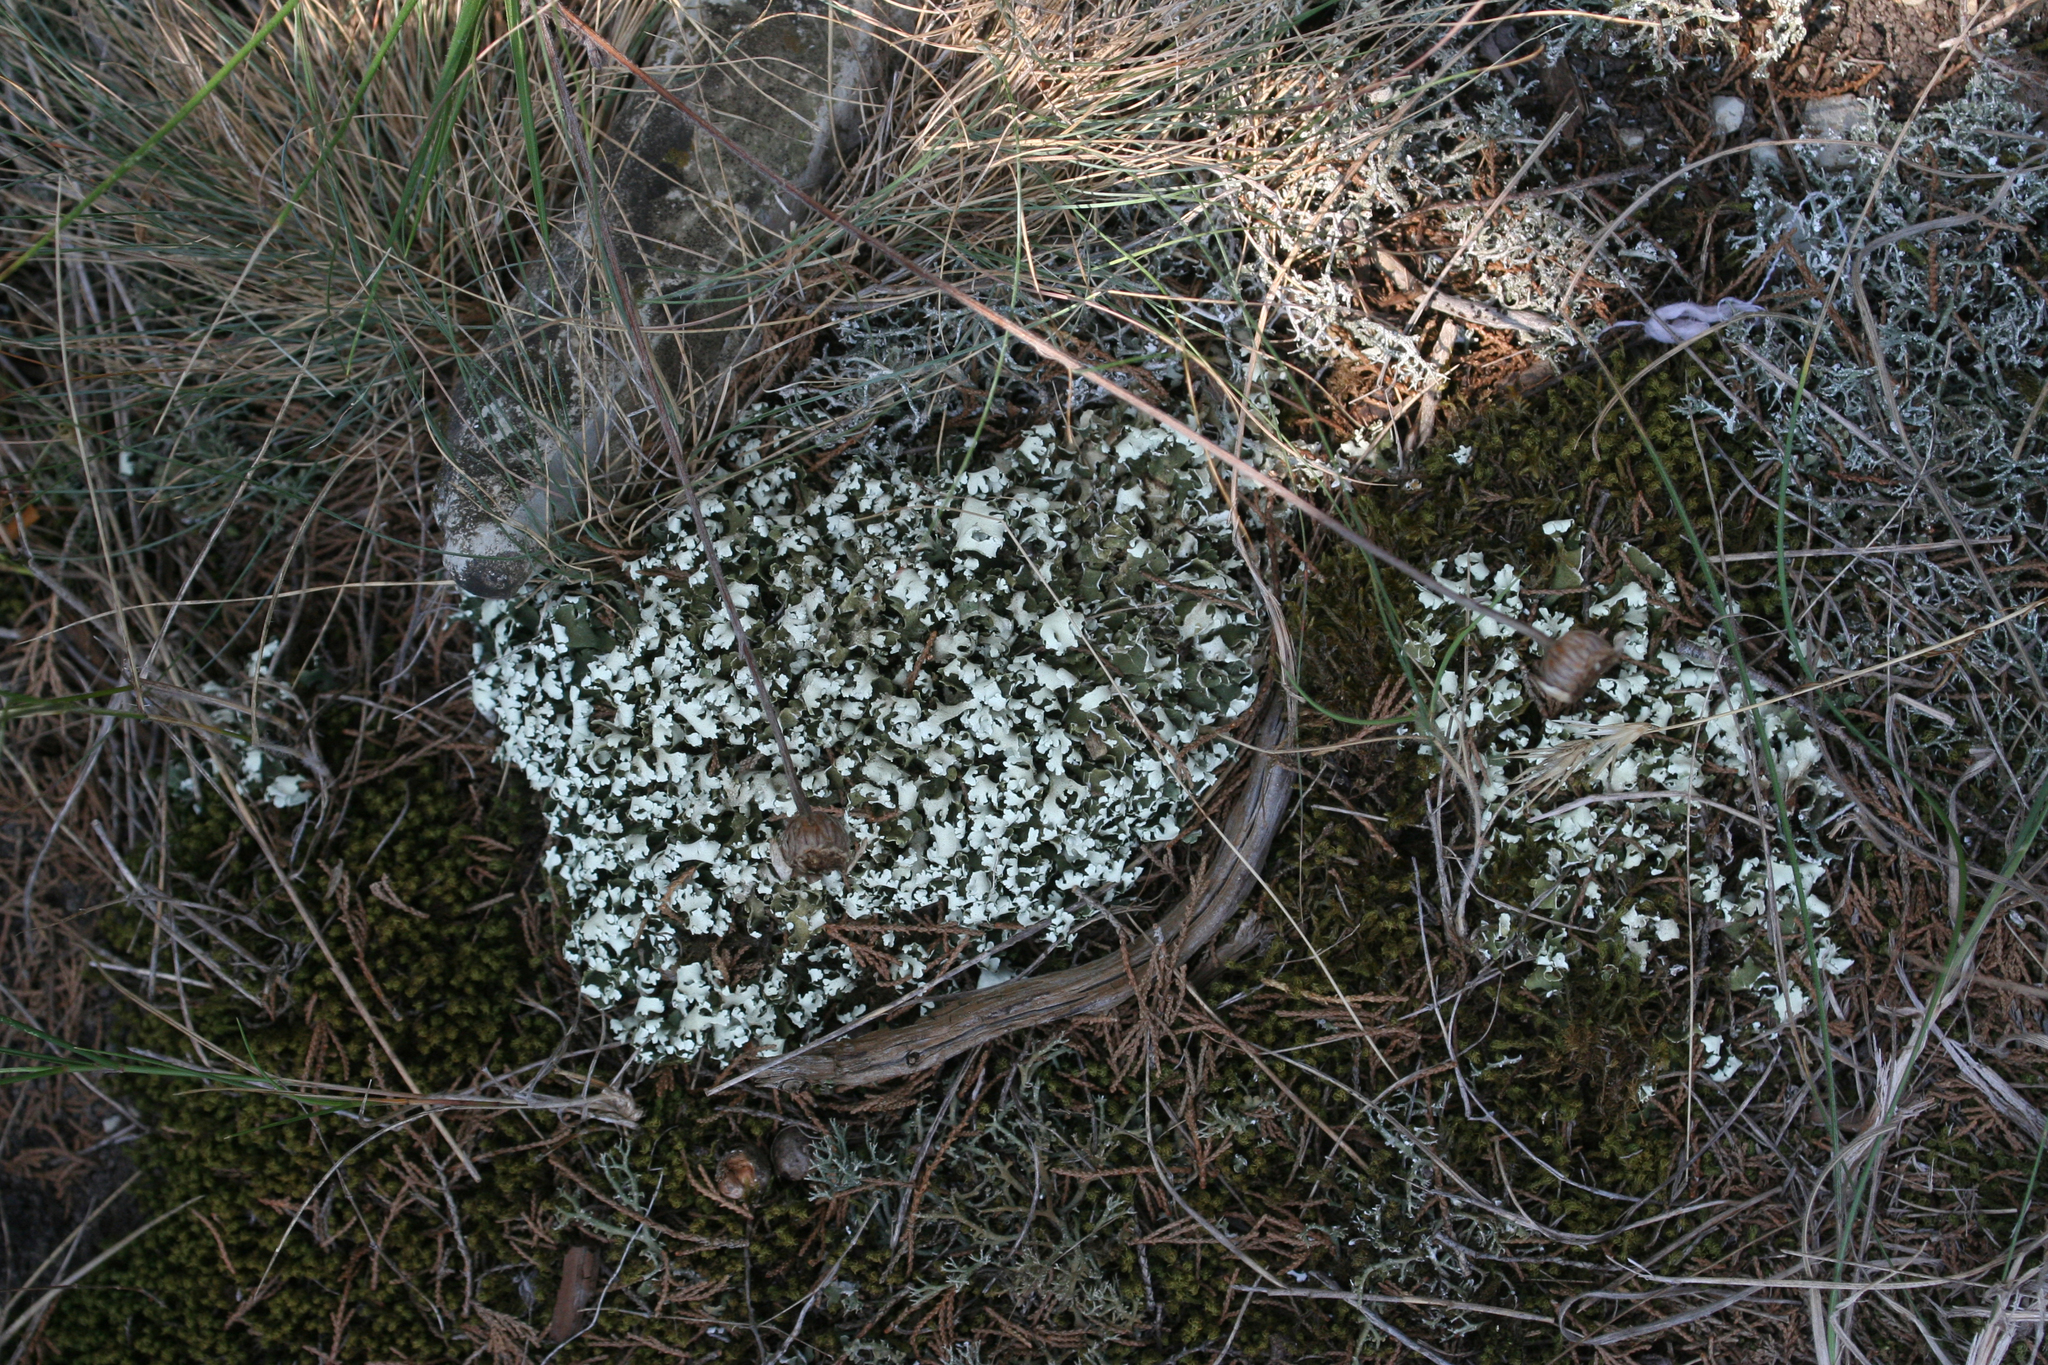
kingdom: Fungi
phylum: Ascomycota
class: Lecanoromycetes
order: Lecanorales
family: Cladoniaceae
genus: Cladonia
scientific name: Cladonia foliacea
